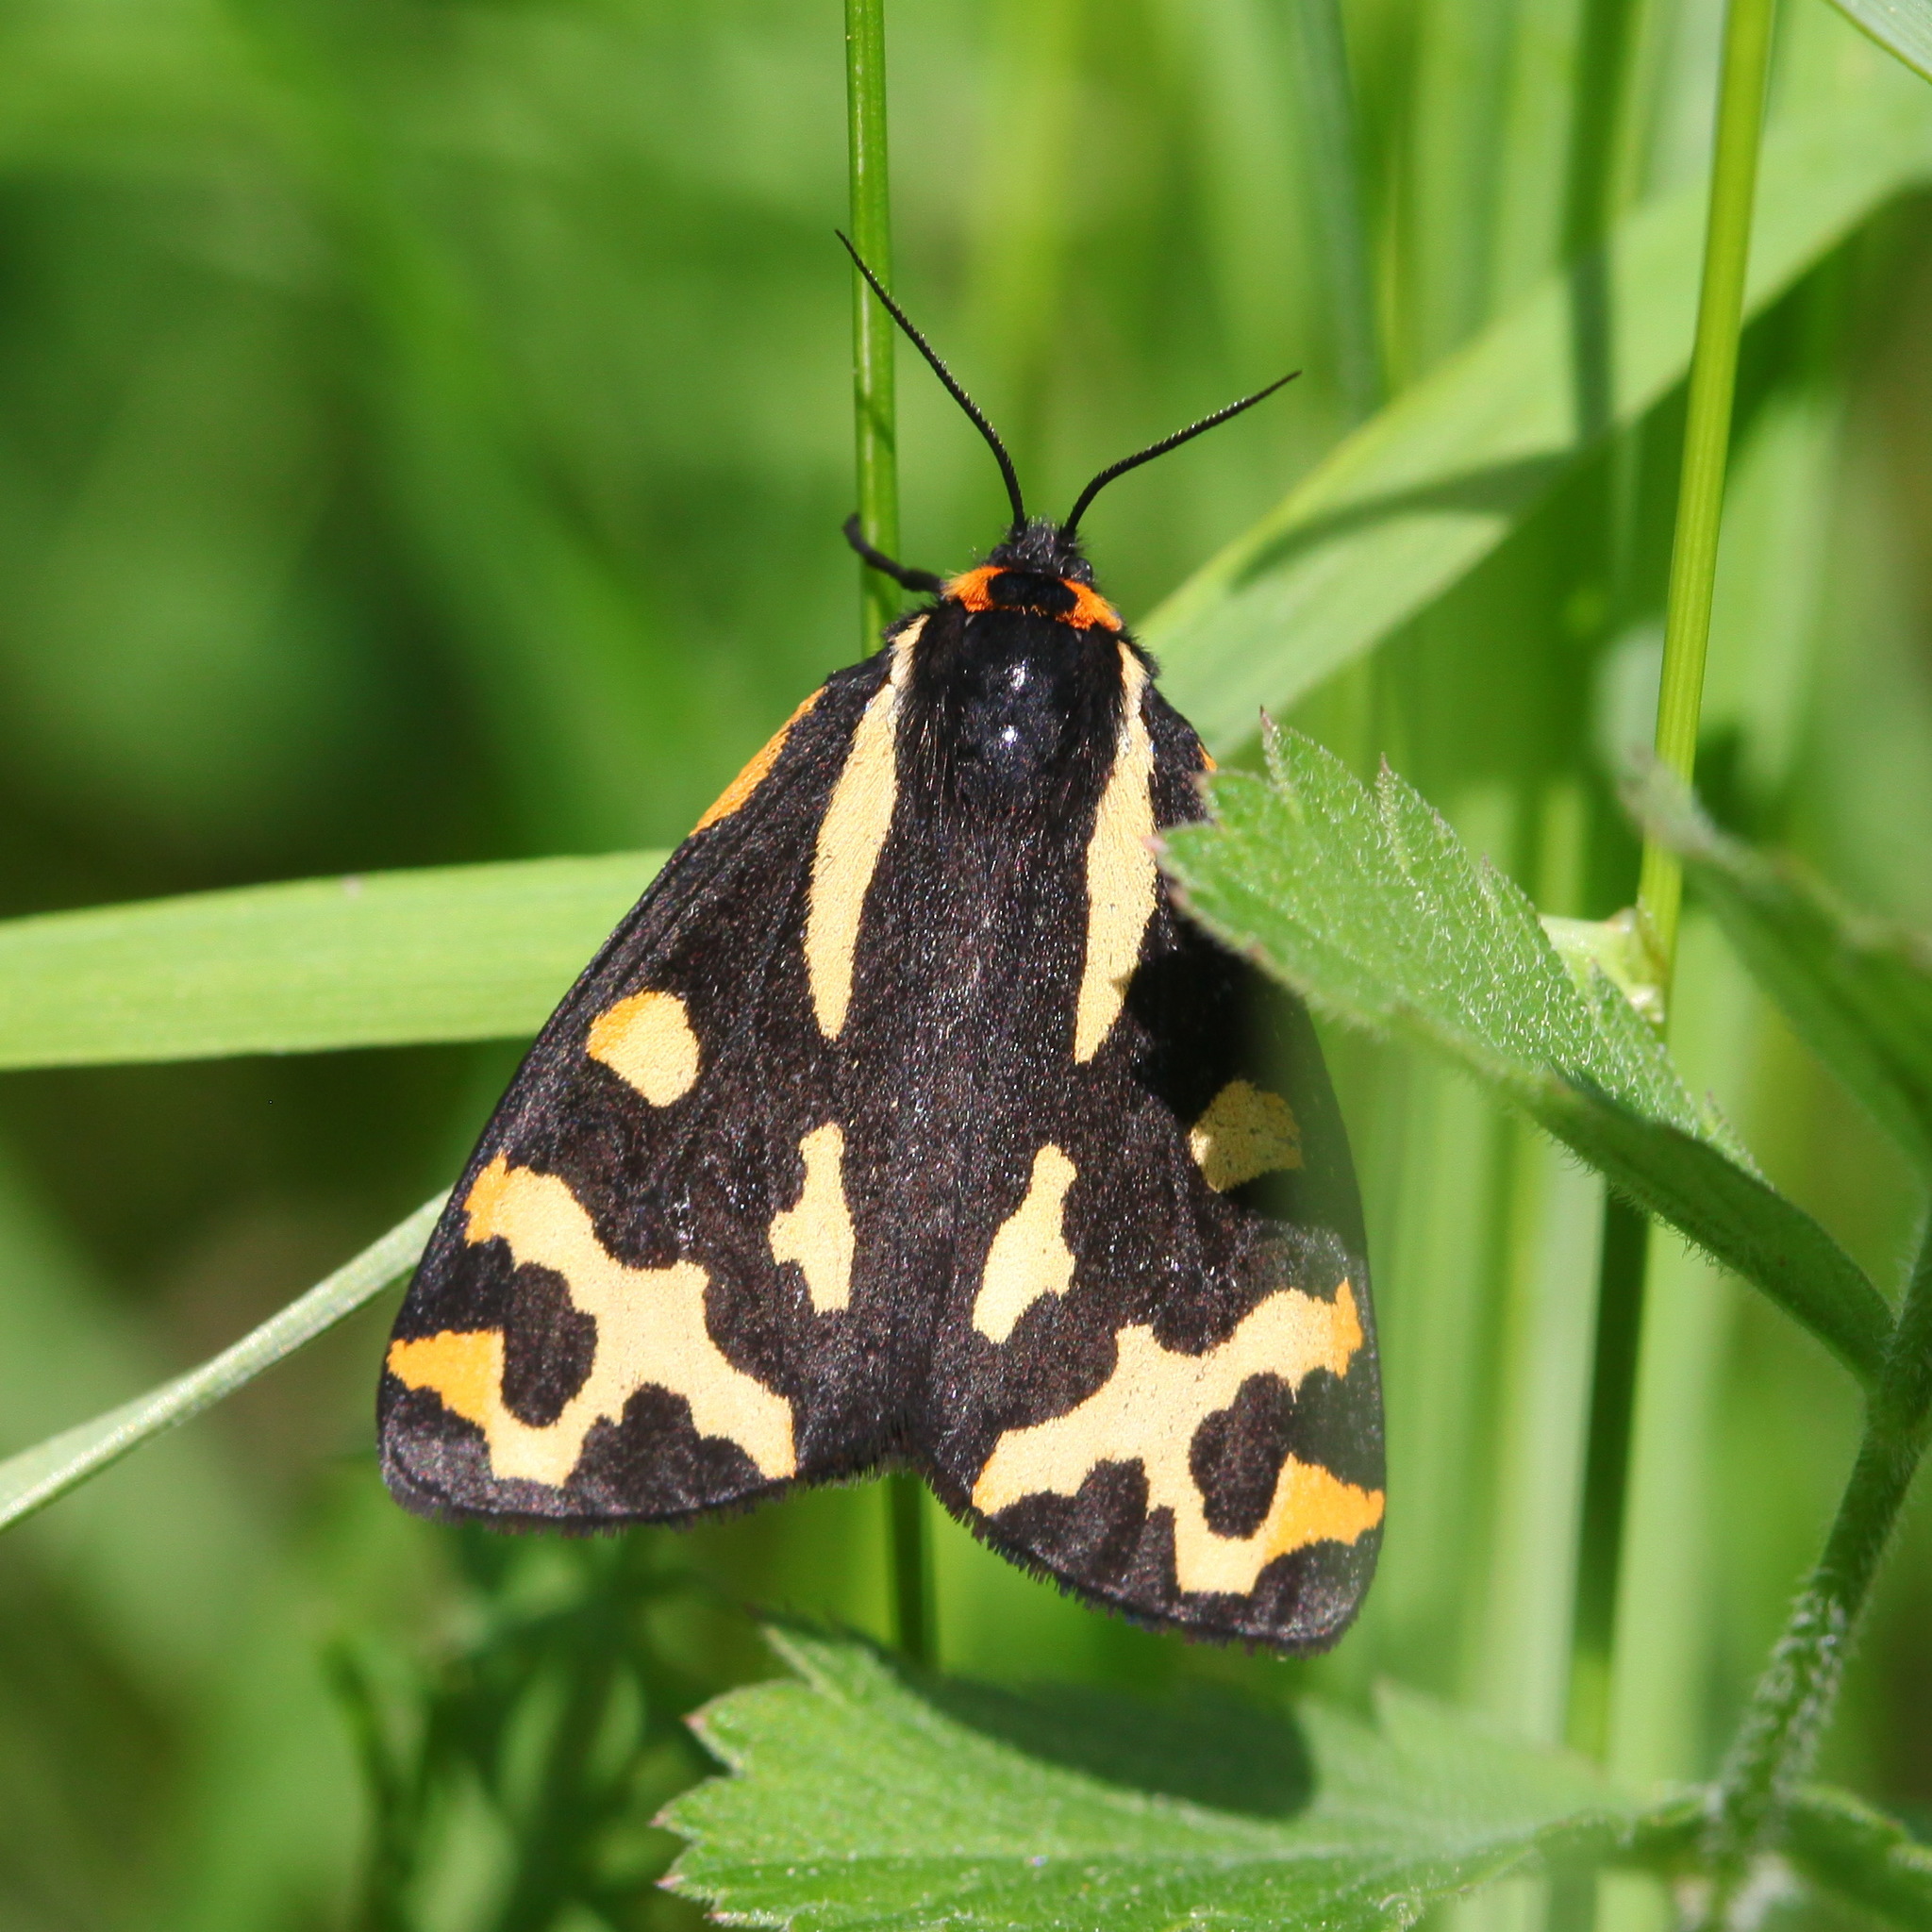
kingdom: Animalia
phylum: Arthropoda
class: Insecta
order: Lepidoptera
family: Erebidae
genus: Parasemia
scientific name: Parasemia plantaginis
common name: Wood tiger
